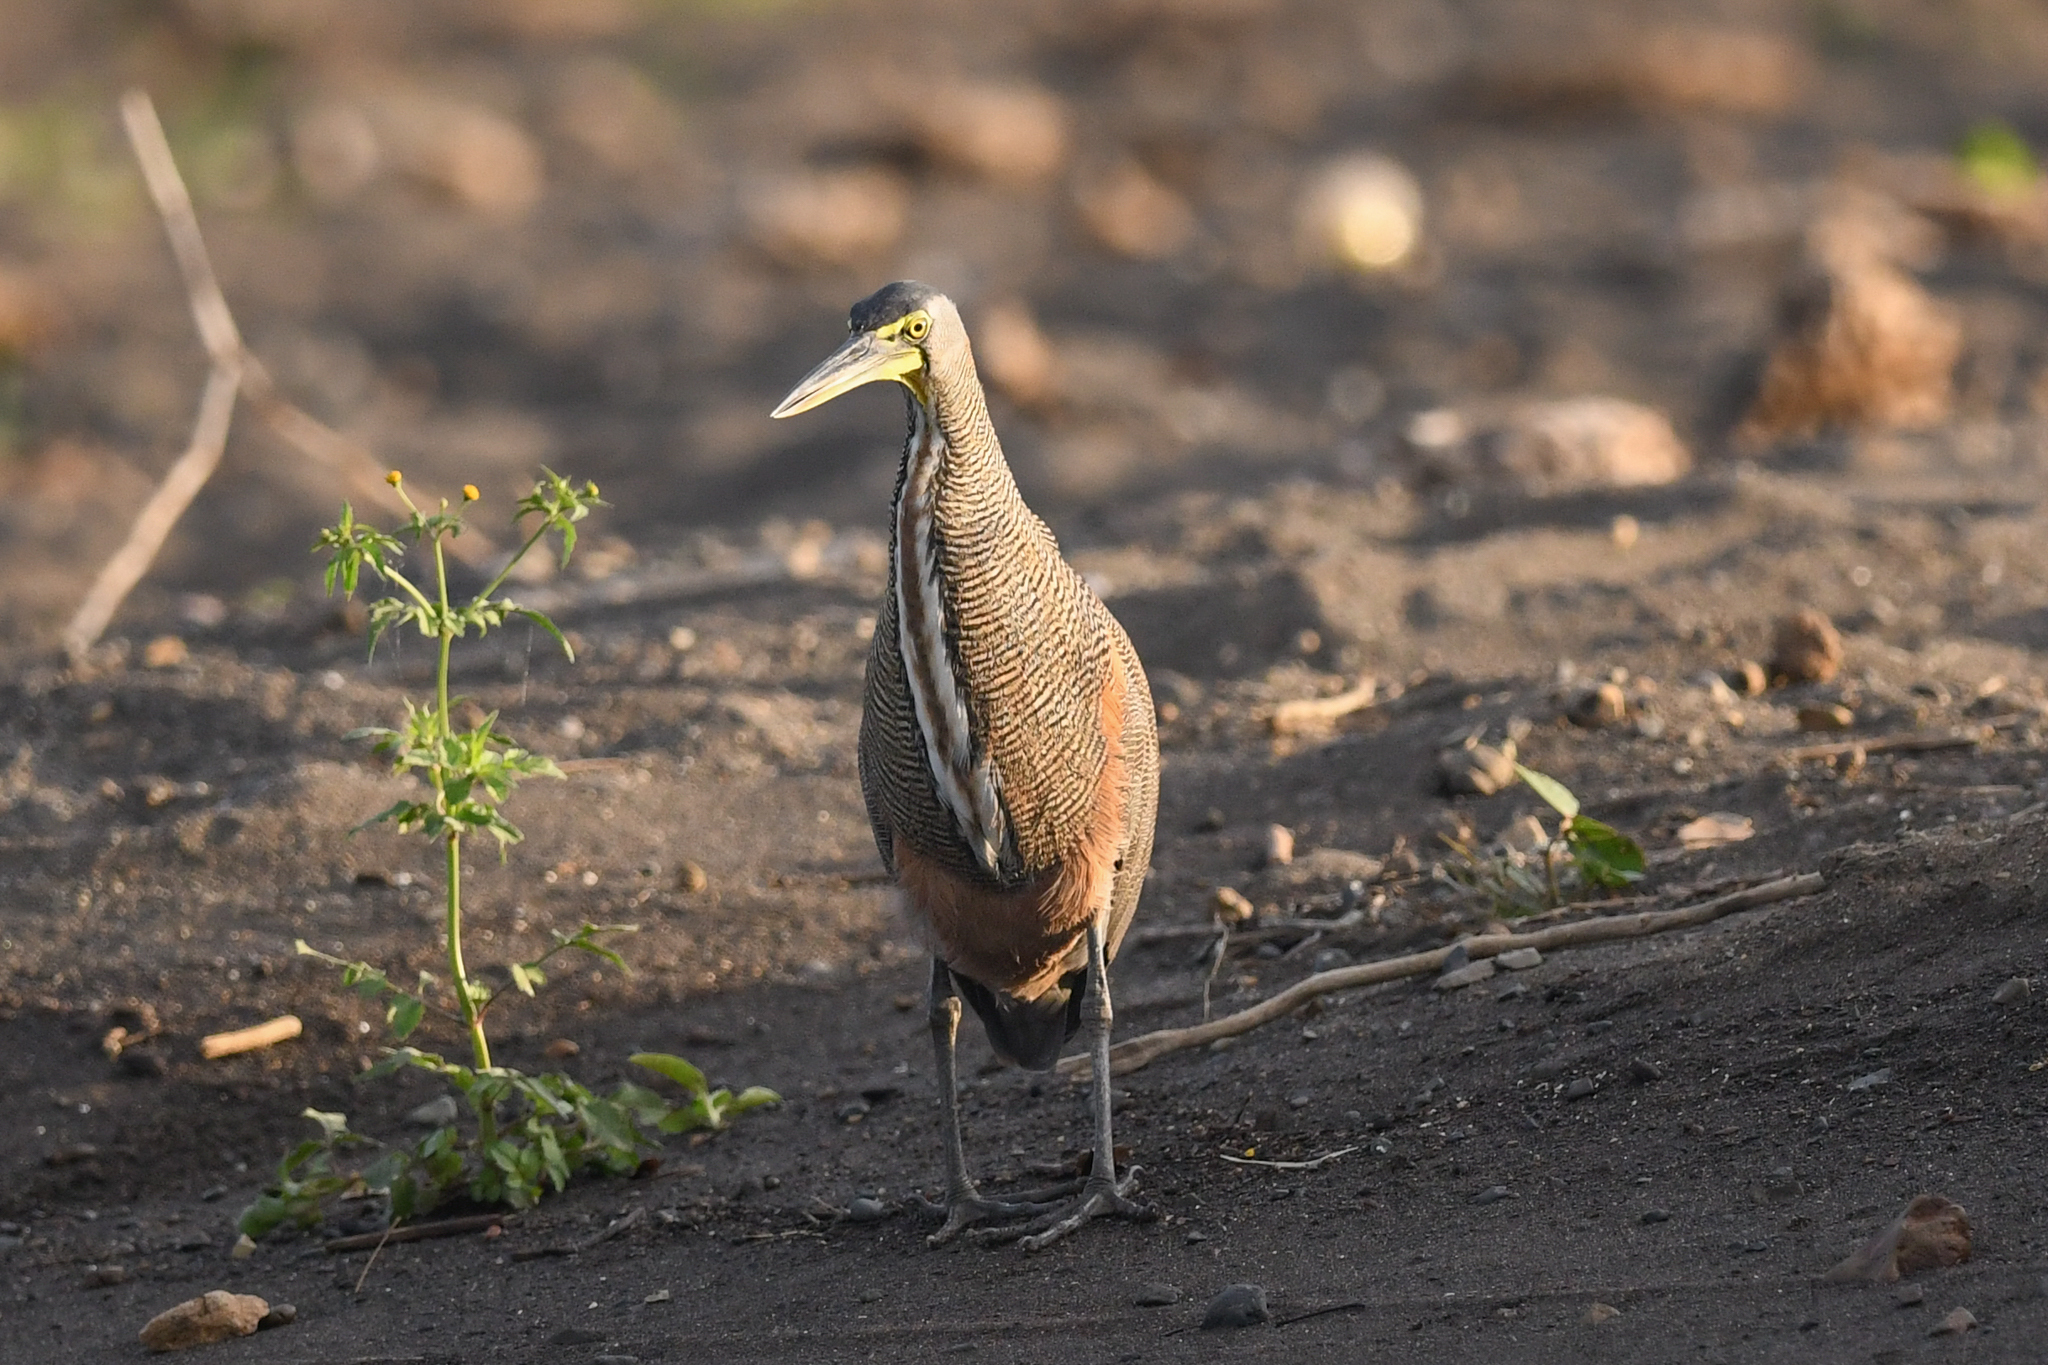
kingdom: Animalia
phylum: Chordata
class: Aves
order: Pelecaniformes
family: Ardeidae
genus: Tigrisoma
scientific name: Tigrisoma mexicanum
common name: Bare-throated tiger-heron
